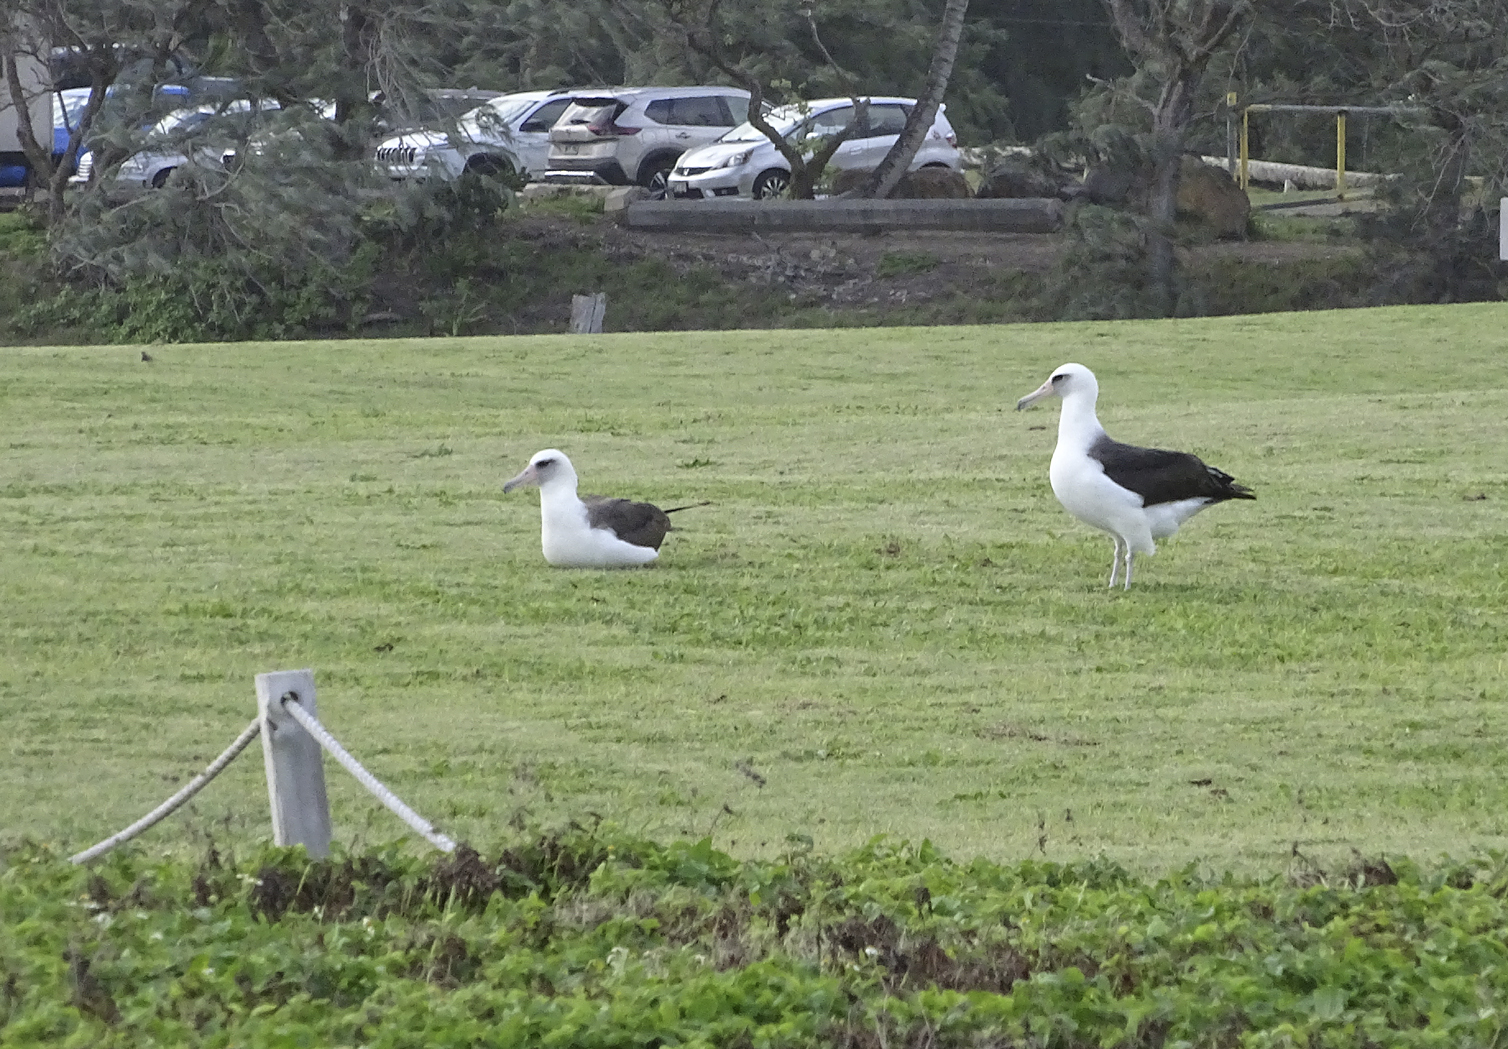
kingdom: Animalia
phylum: Chordata
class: Aves
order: Procellariiformes
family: Diomedeidae
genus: Phoebastria
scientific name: Phoebastria immutabilis
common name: Laysan albatross
